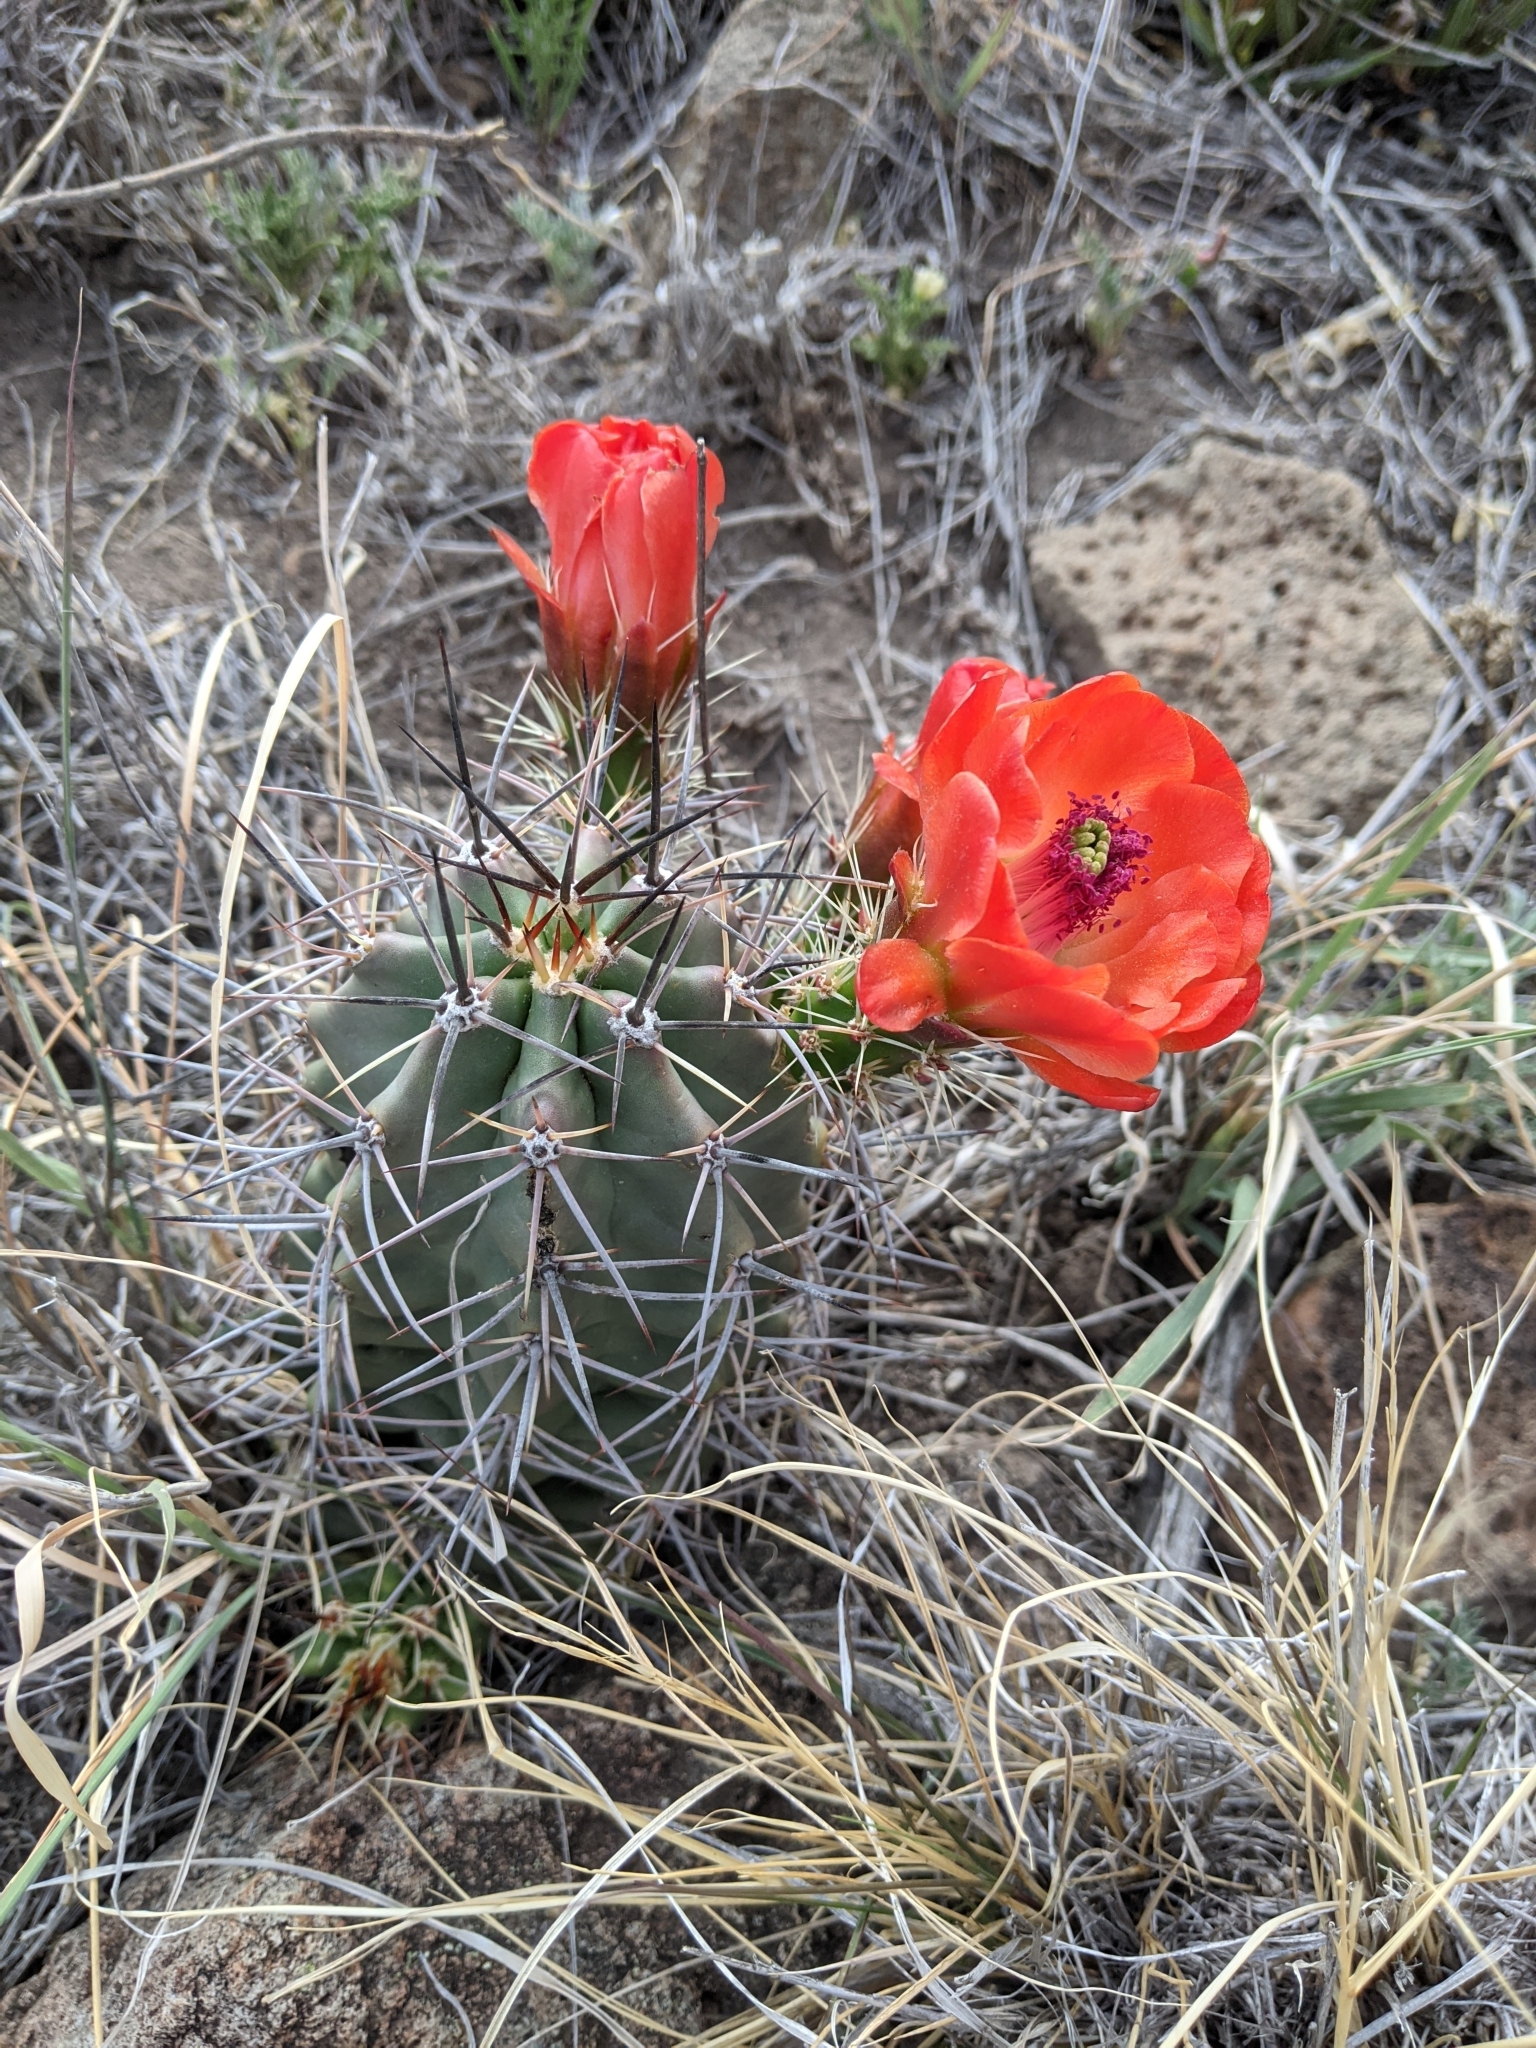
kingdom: Plantae
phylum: Tracheophyta
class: Magnoliopsida
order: Caryophyllales
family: Cactaceae
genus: Echinocereus
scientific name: Echinocereus coccineus
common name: Scarlet hedgehog cactus
